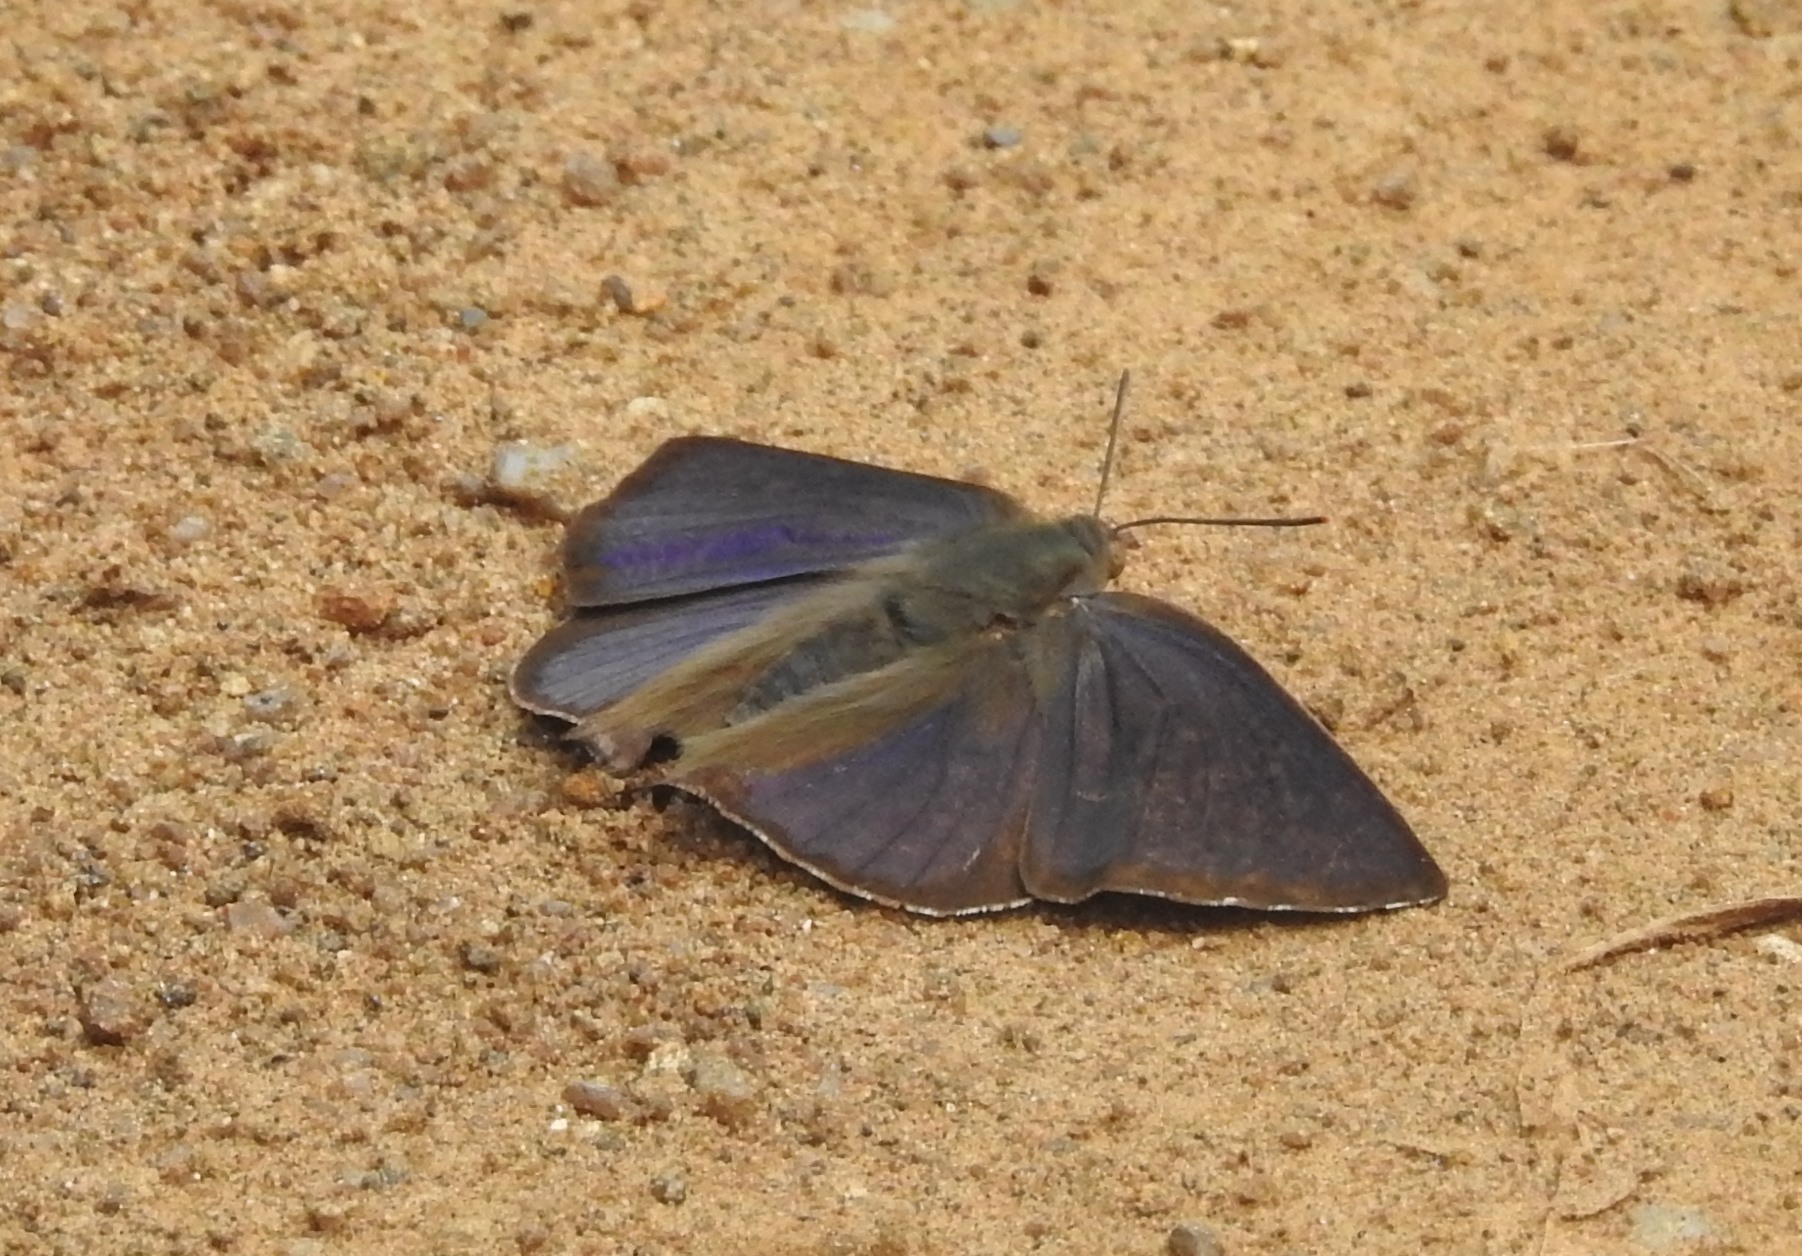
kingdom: Animalia
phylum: Arthropoda
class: Insecta
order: Lepidoptera
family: Lycaenidae
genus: Amblypodia
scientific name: Amblypodia anita
